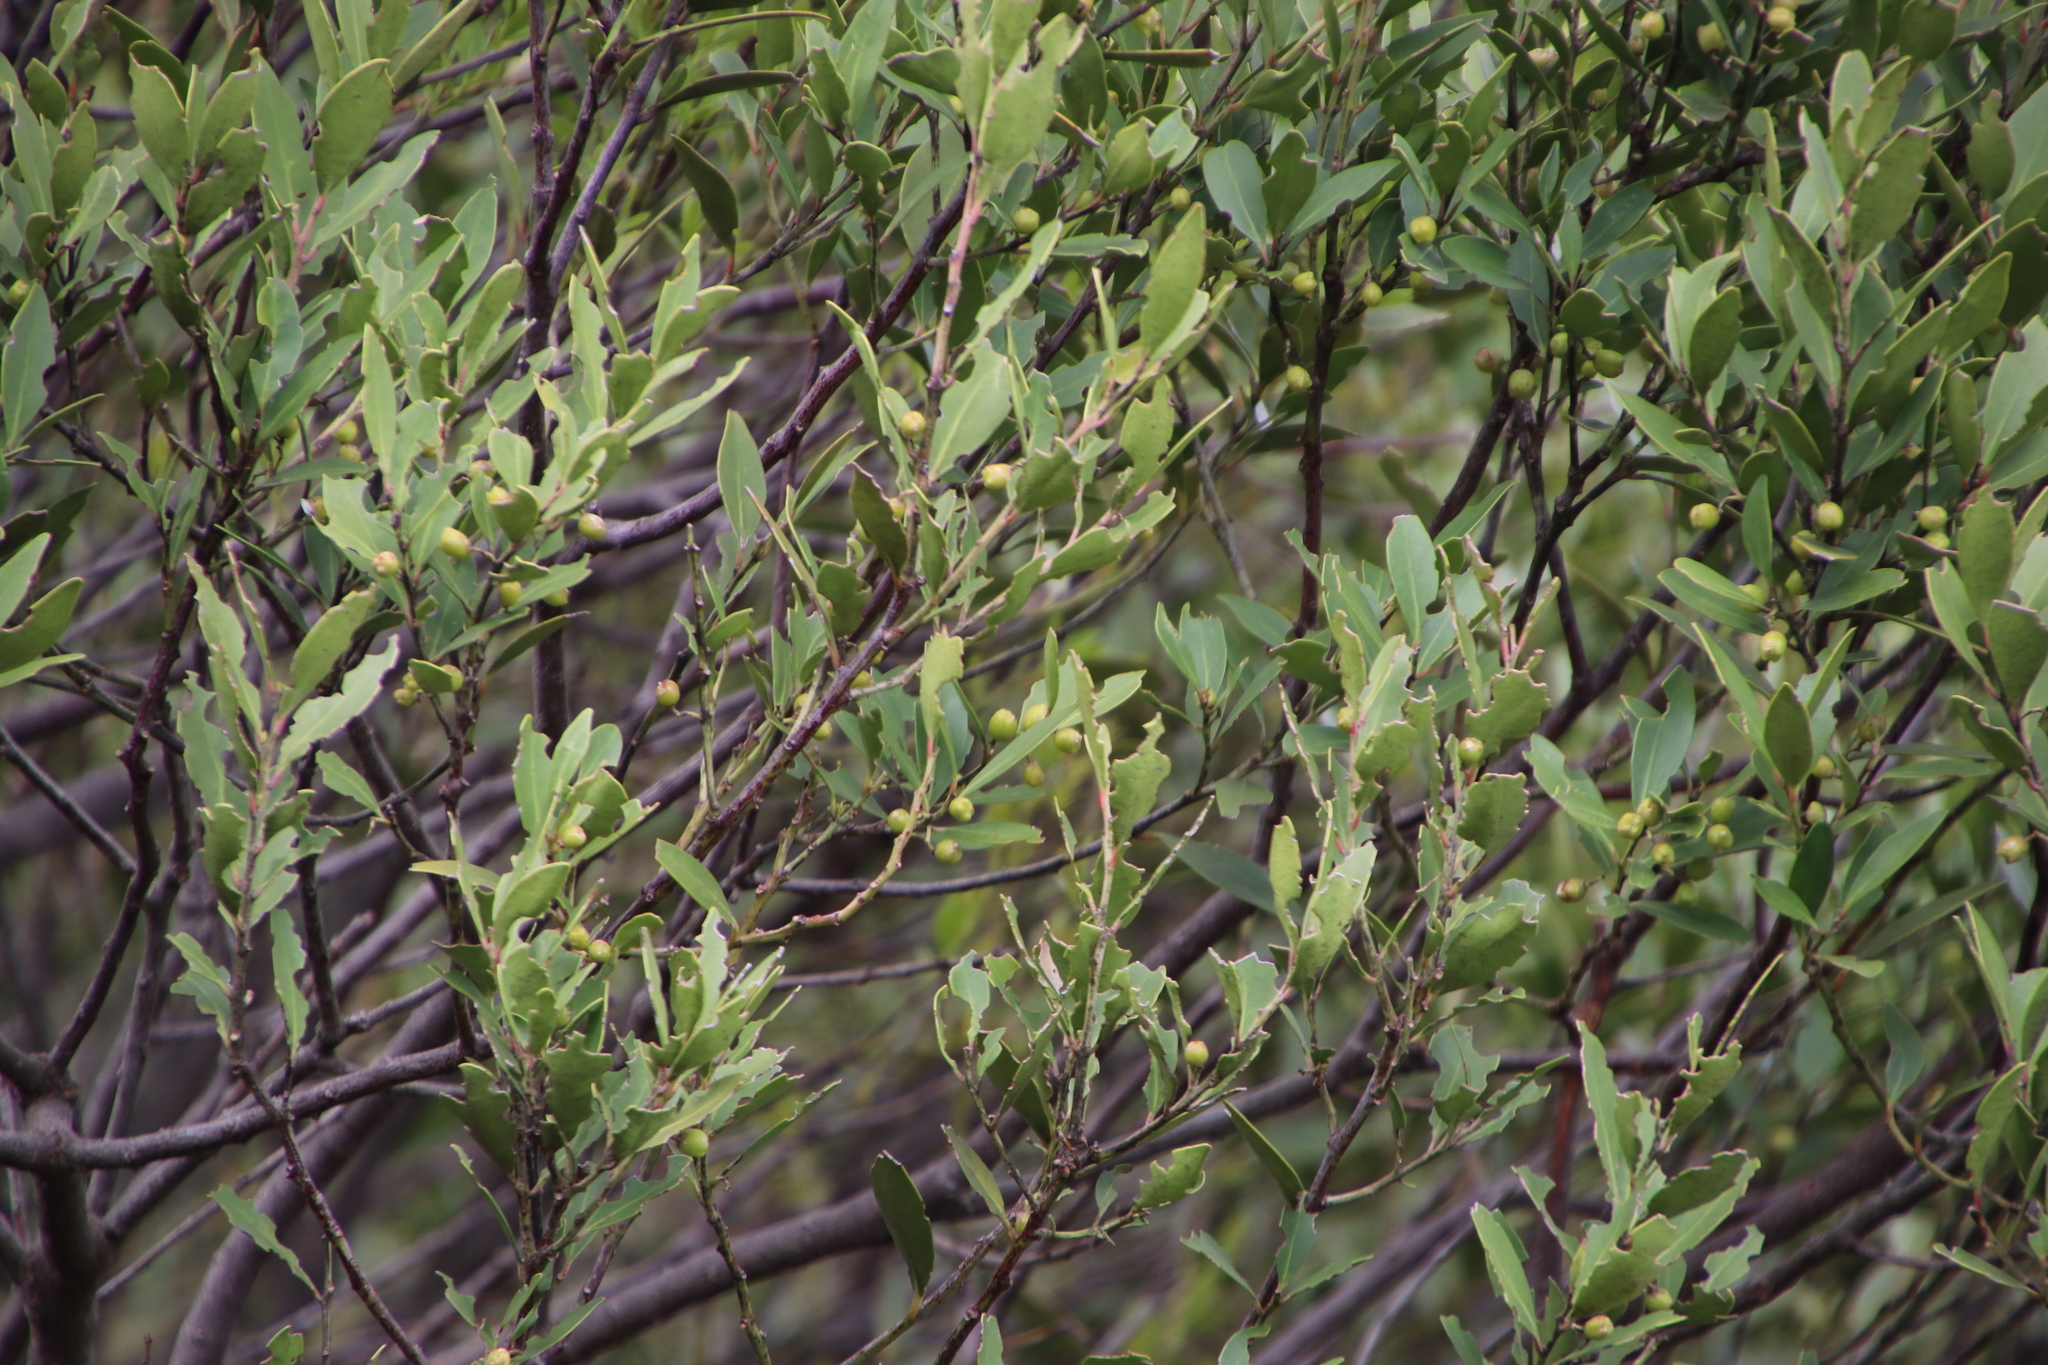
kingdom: Plantae
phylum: Tracheophyta
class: Magnoliopsida
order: Celastrales
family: Celastraceae
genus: Gymnosporia
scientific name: Gymnosporia laurina
